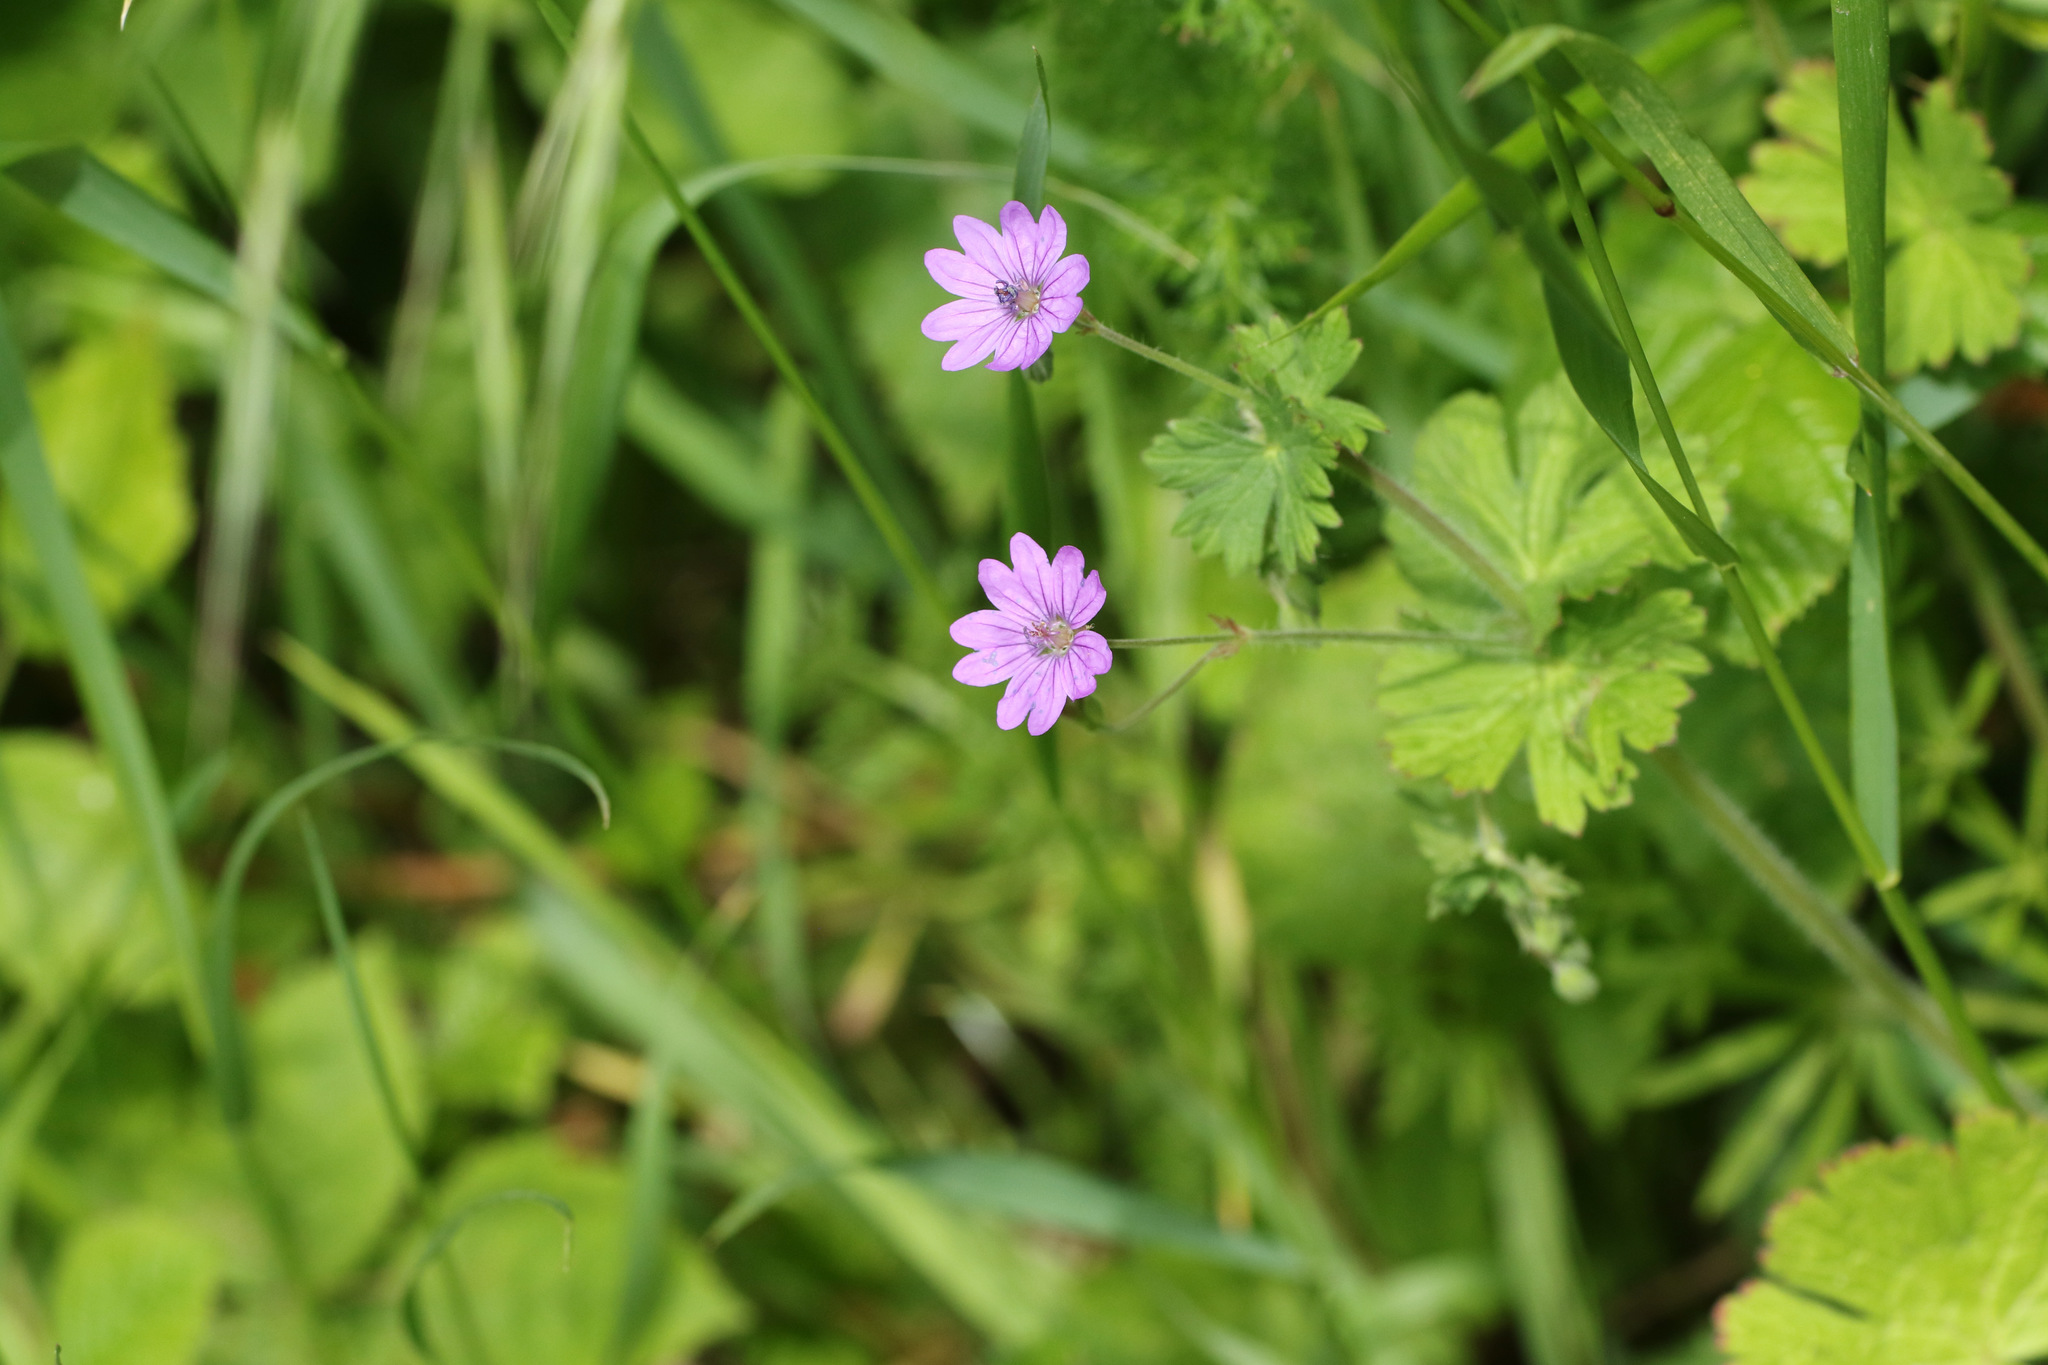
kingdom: Plantae
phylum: Tracheophyta
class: Magnoliopsida
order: Geraniales
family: Geraniaceae
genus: Geranium
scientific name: Geranium pyrenaicum
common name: Hedgerow crane's-bill
